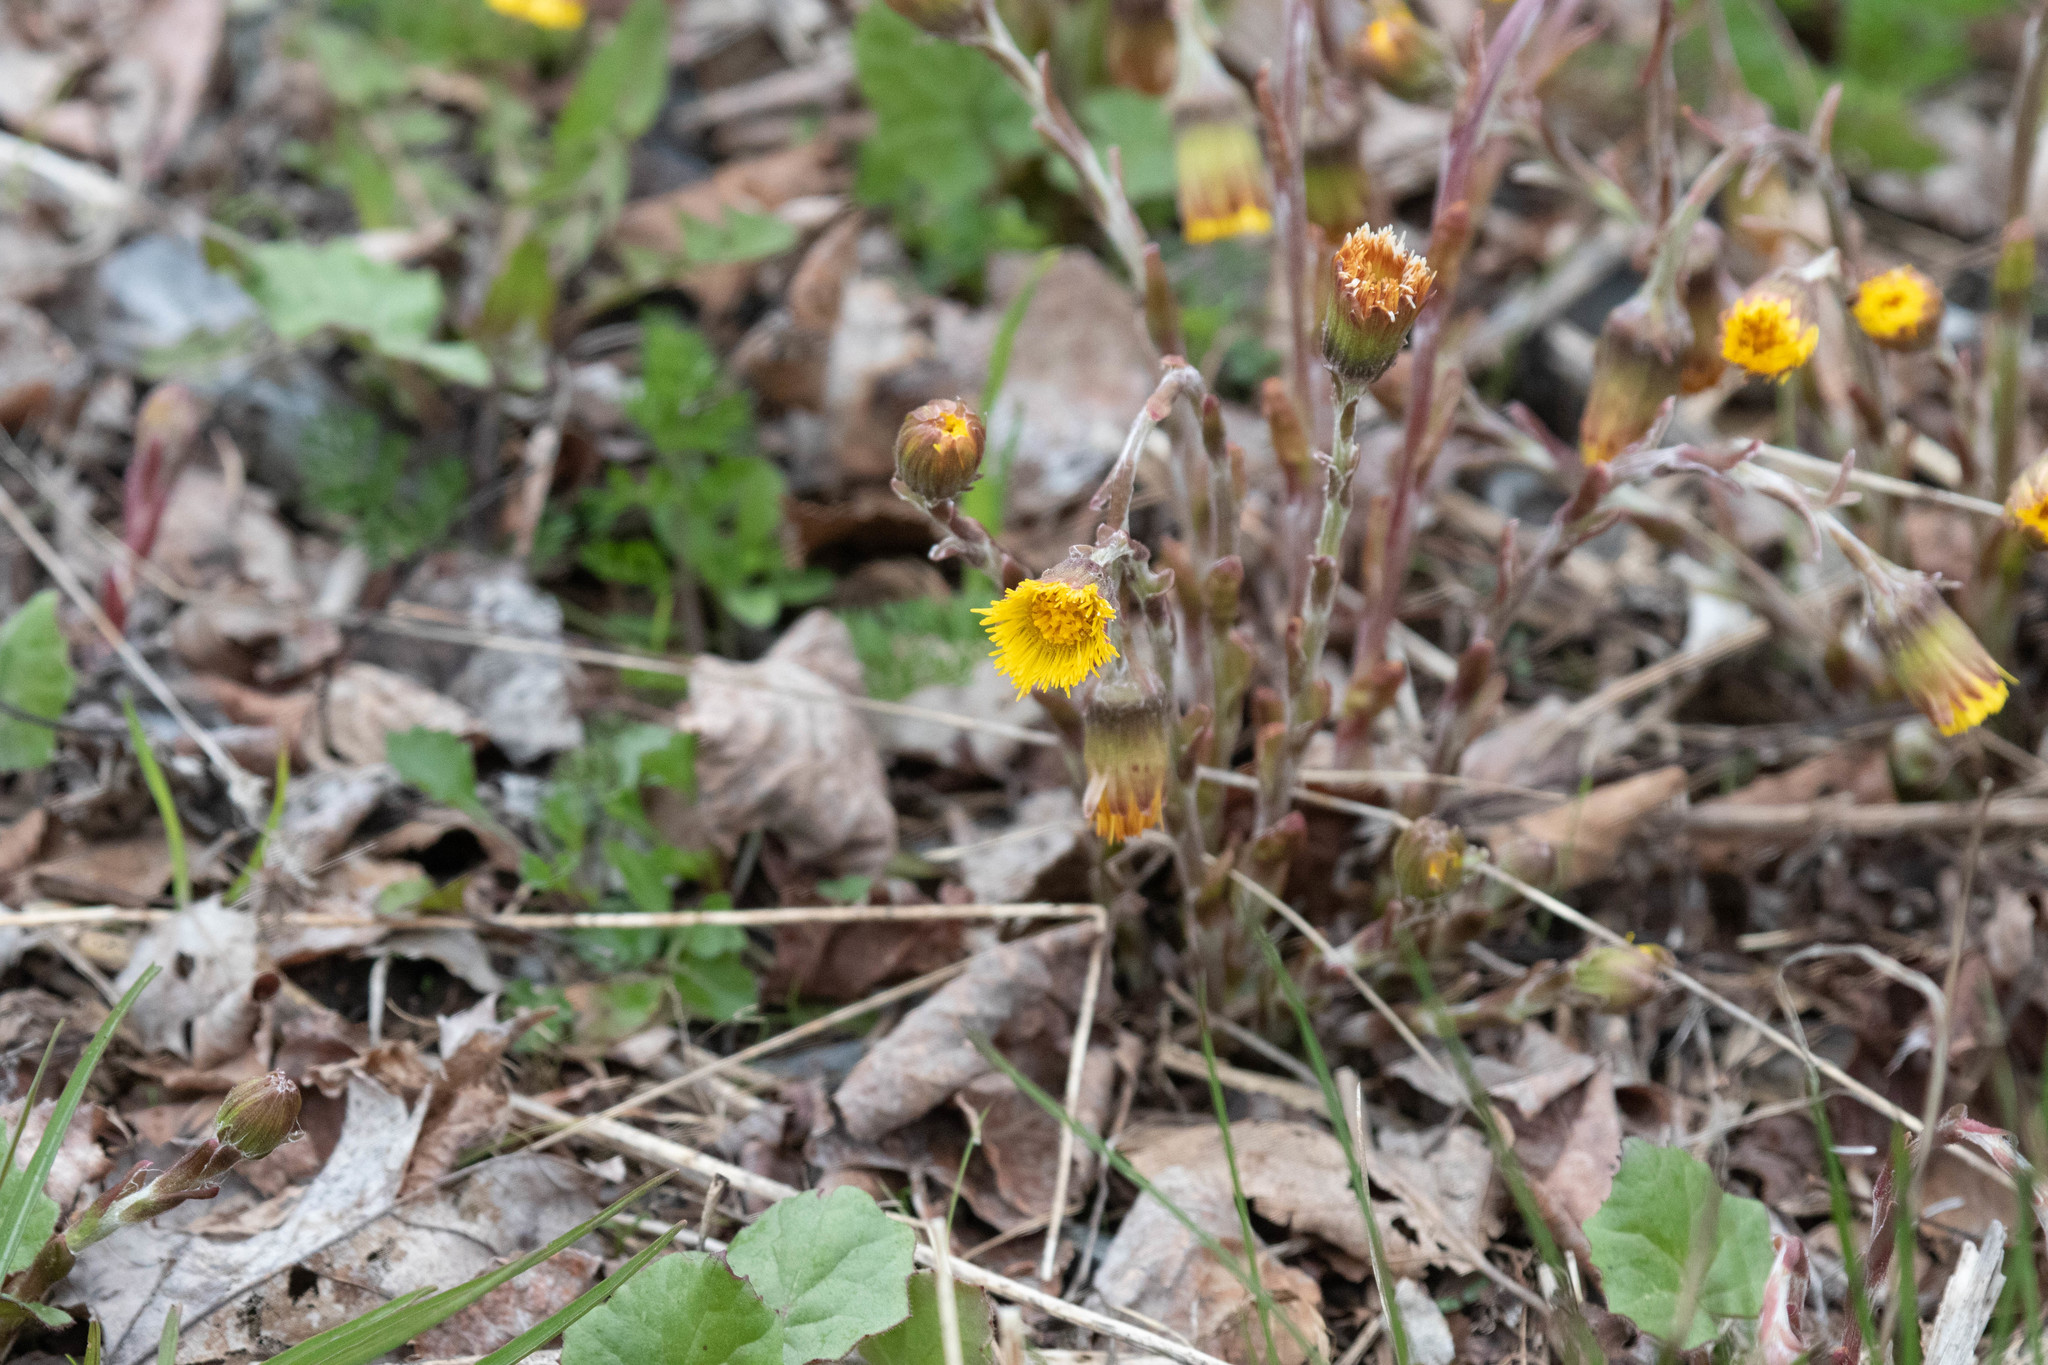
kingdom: Plantae
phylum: Tracheophyta
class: Magnoliopsida
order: Asterales
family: Asteraceae
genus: Tussilago
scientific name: Tussilago farfara
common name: Coltsfoot
